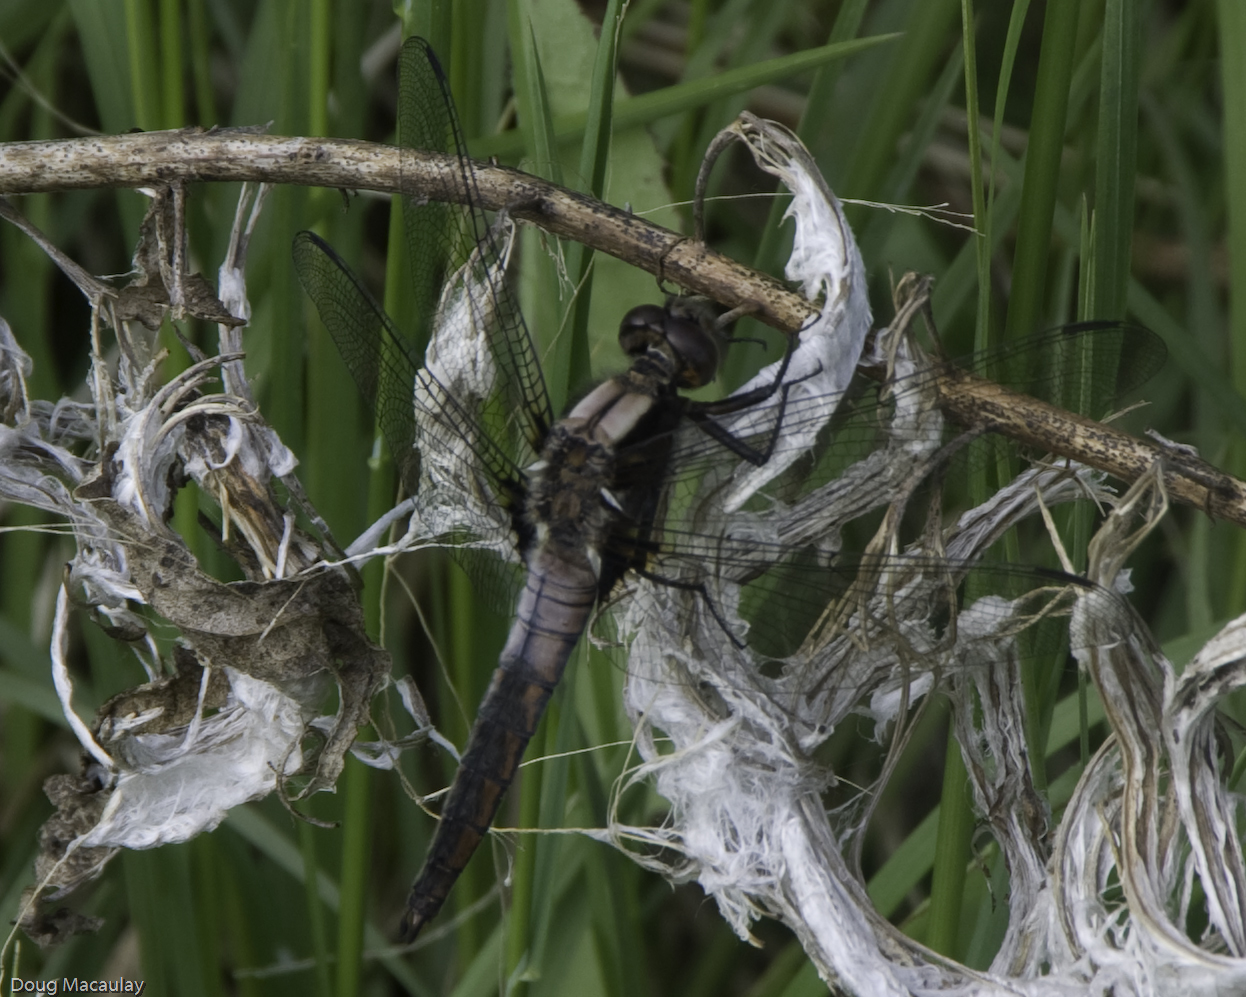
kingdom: Animalia
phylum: Arthropoda
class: Insecta
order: Odonata
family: Libellulidae
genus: Ladona
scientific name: Ladona julia
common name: Chalk-fronted corporal
